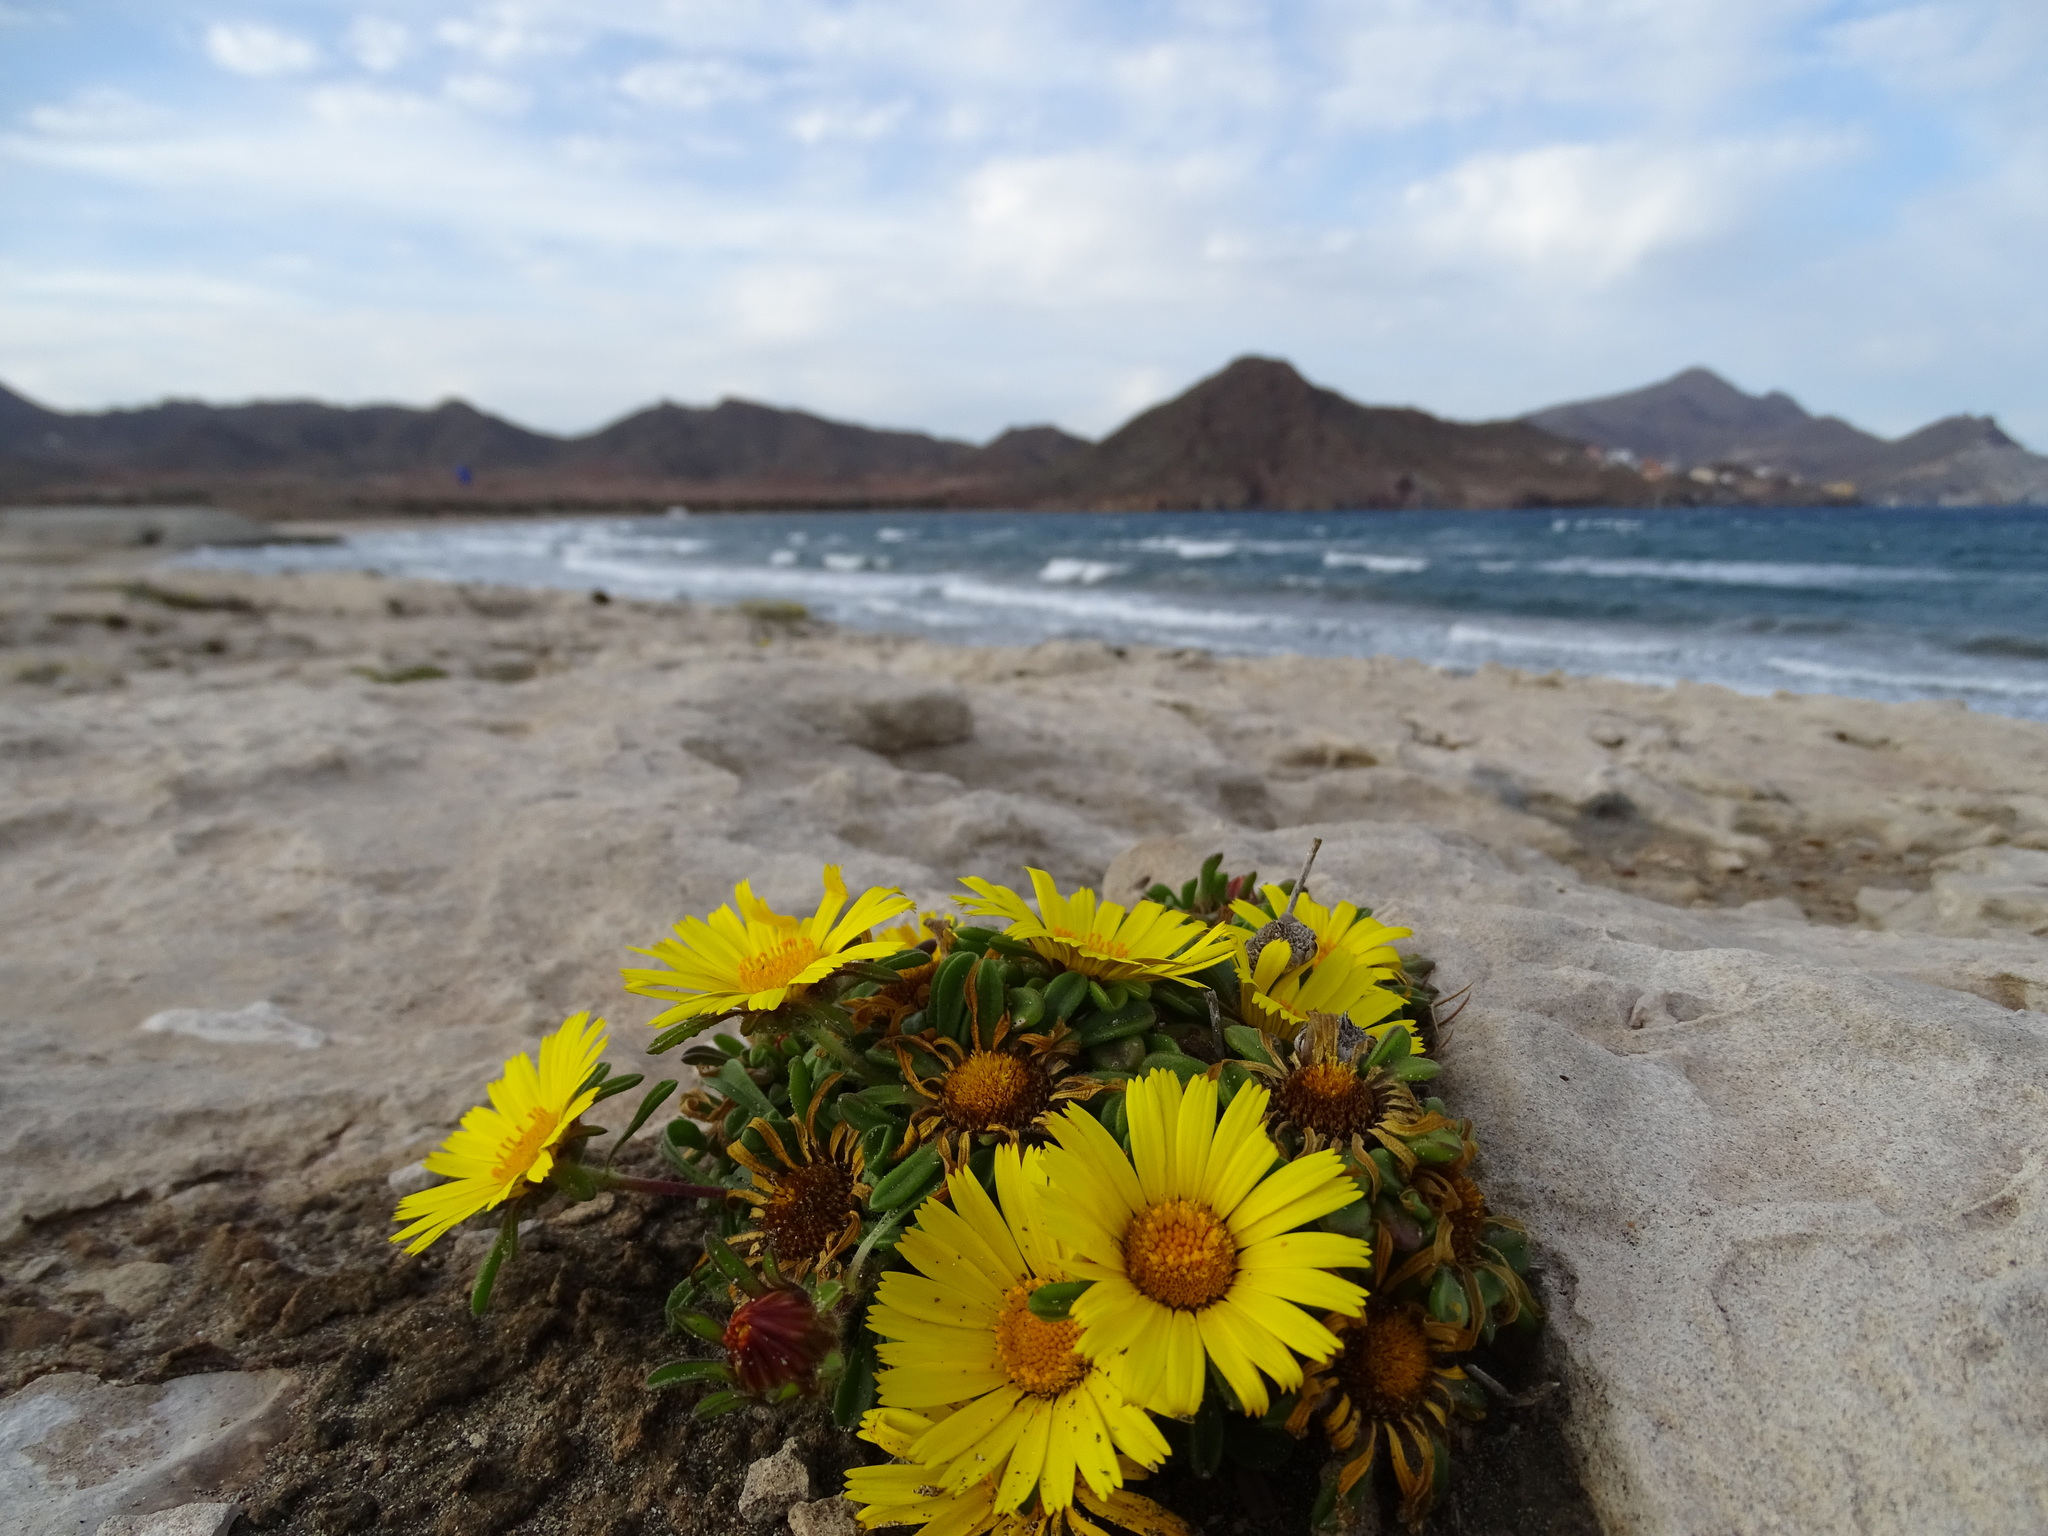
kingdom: Plantae
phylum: Tracheophyta
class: Magnoliopsida
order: Asterales
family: Asteraceae
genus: Pallenis
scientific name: Pallenis maritima
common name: Golden coin daisy
